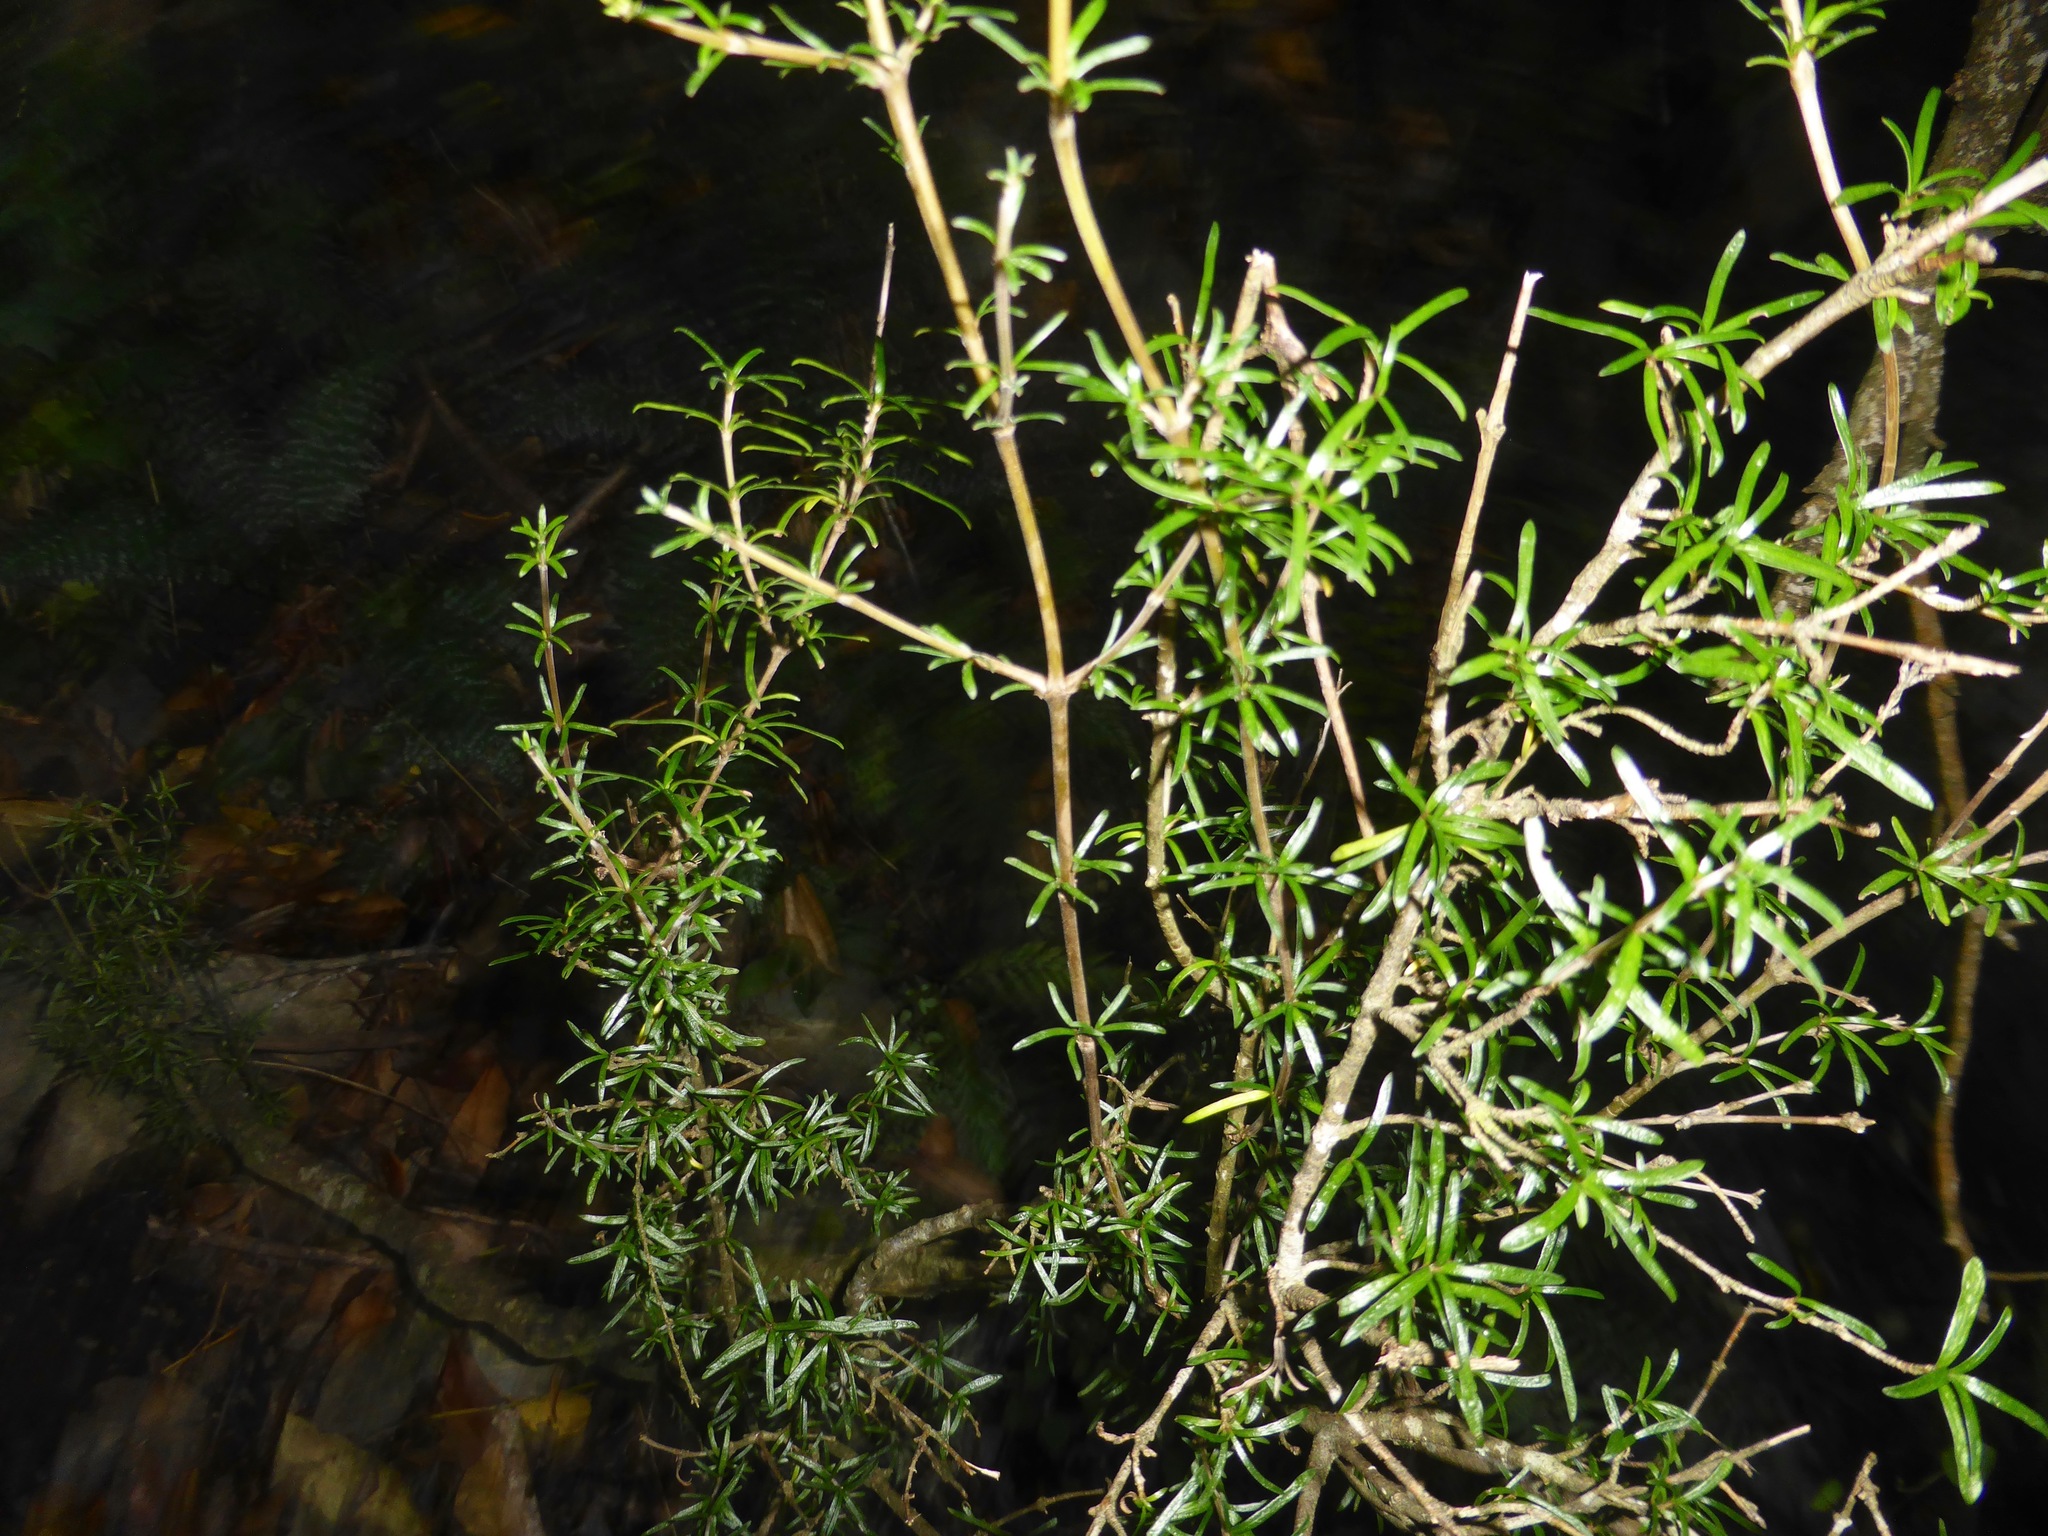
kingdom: Plantae
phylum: Tracheophyta
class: Magnoliopsida
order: Gentianales
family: Rubiaceae
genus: Coprosma
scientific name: Coprosma linariifolia
